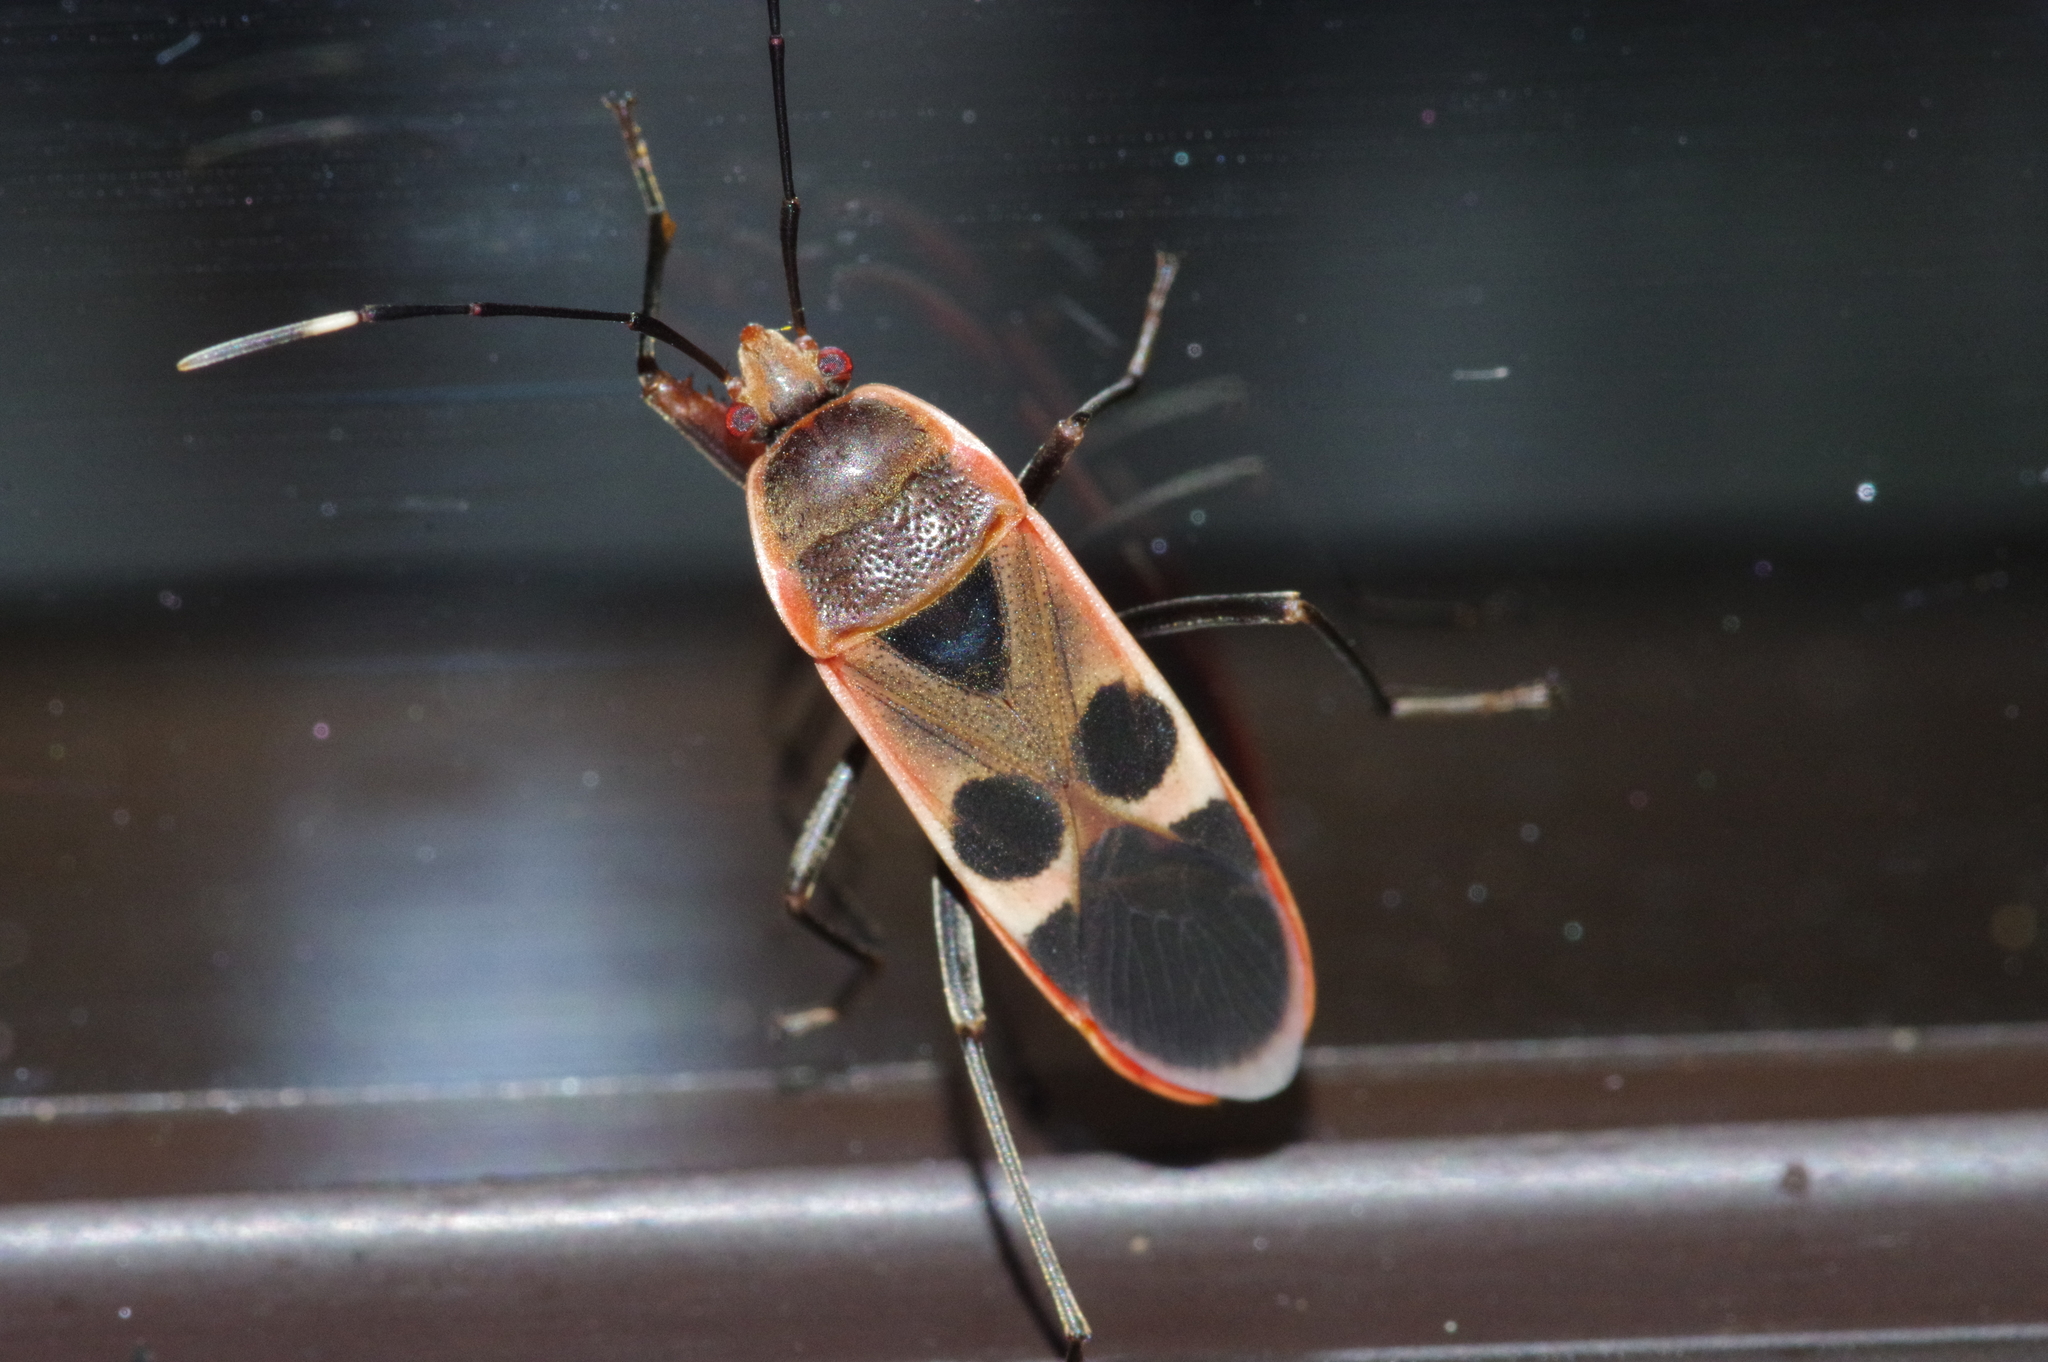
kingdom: Animalia
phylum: Arthropoda
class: Insecta
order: Hemiptera
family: Largidae
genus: Physopelta
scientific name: Physopelta gutta
